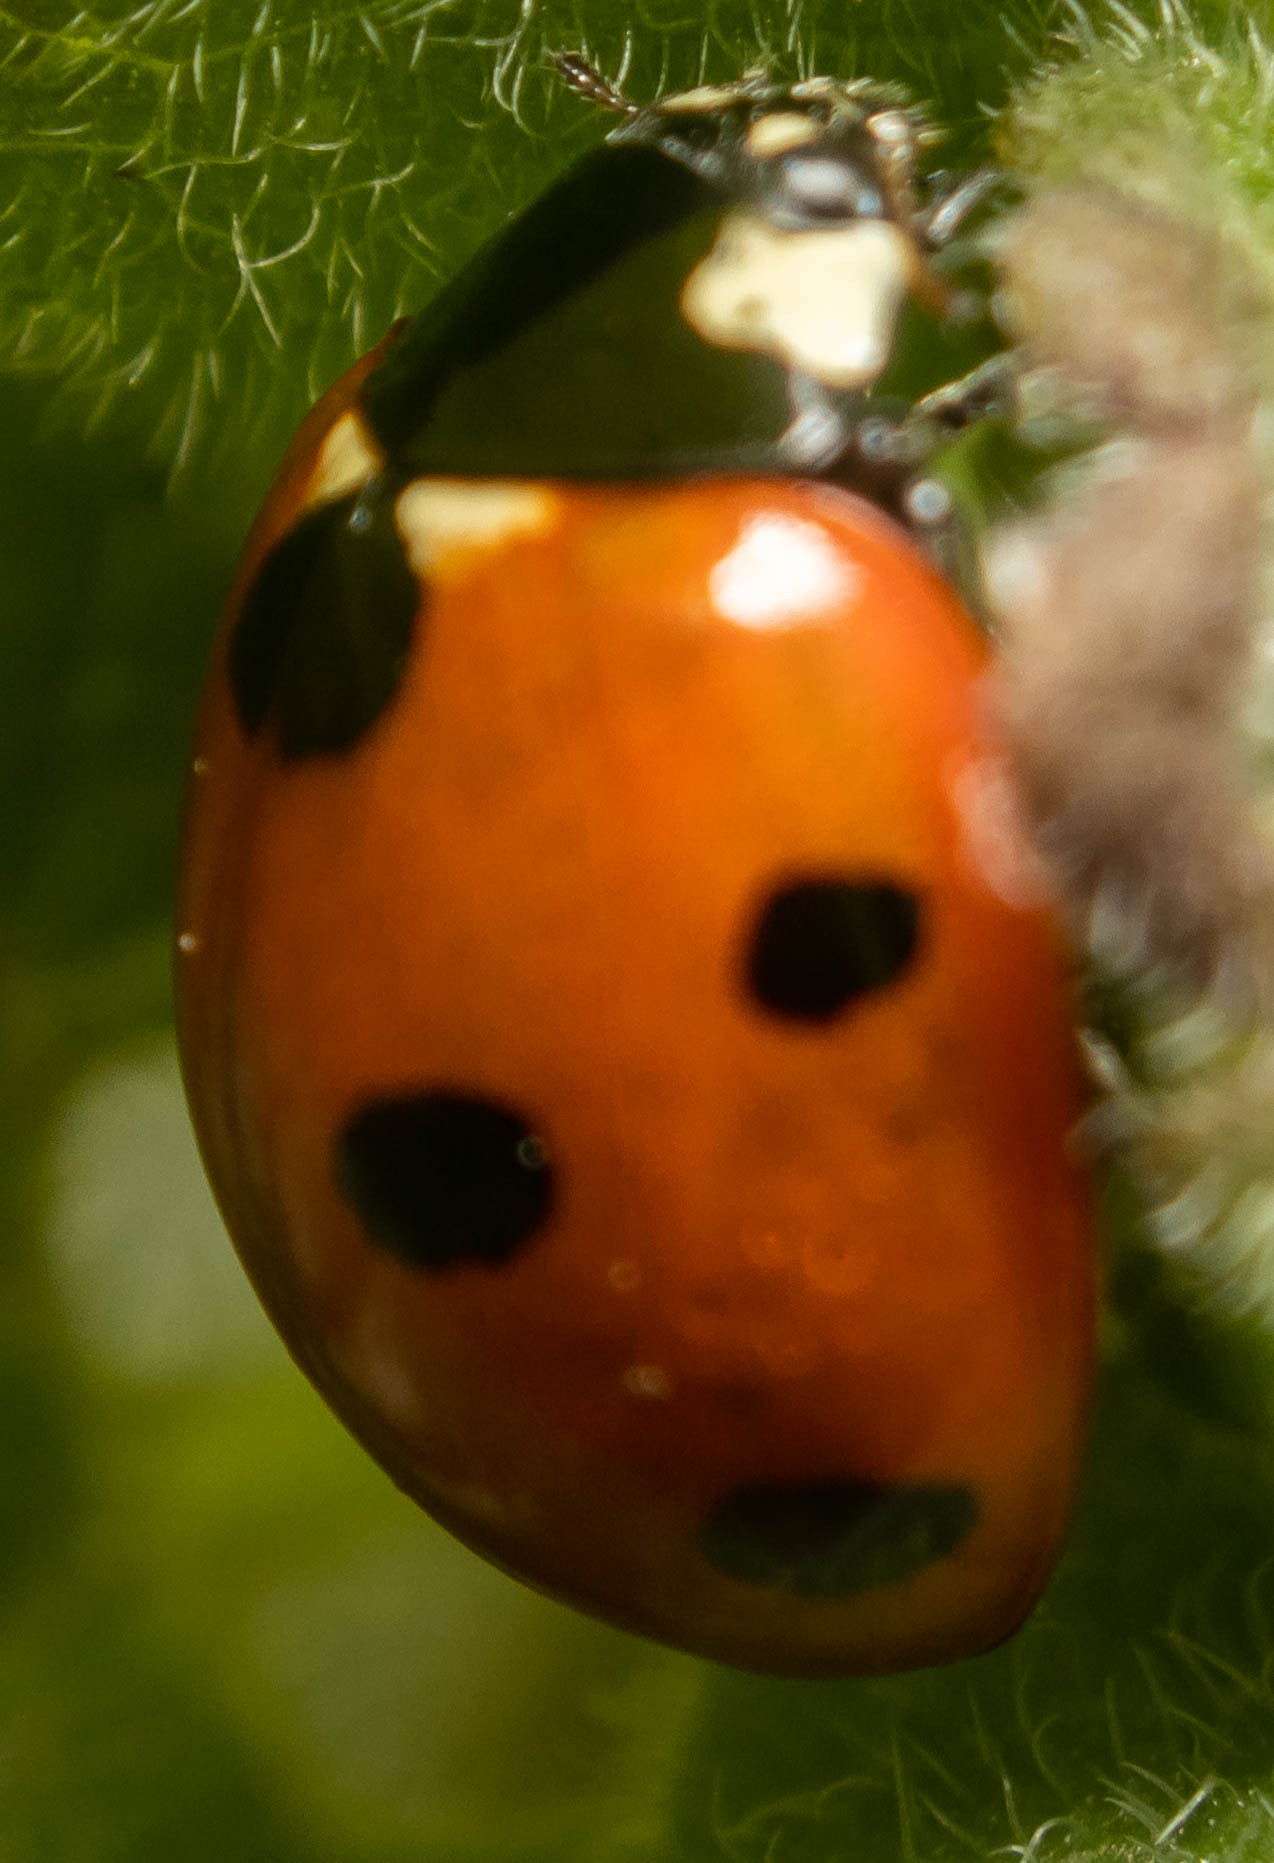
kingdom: Animalia
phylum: Arthropoda
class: Insecta
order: Coleoptera
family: Coccinellidae
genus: Coccinella
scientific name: Coccinella septempunctata
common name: Sevenspotted lady beetle
